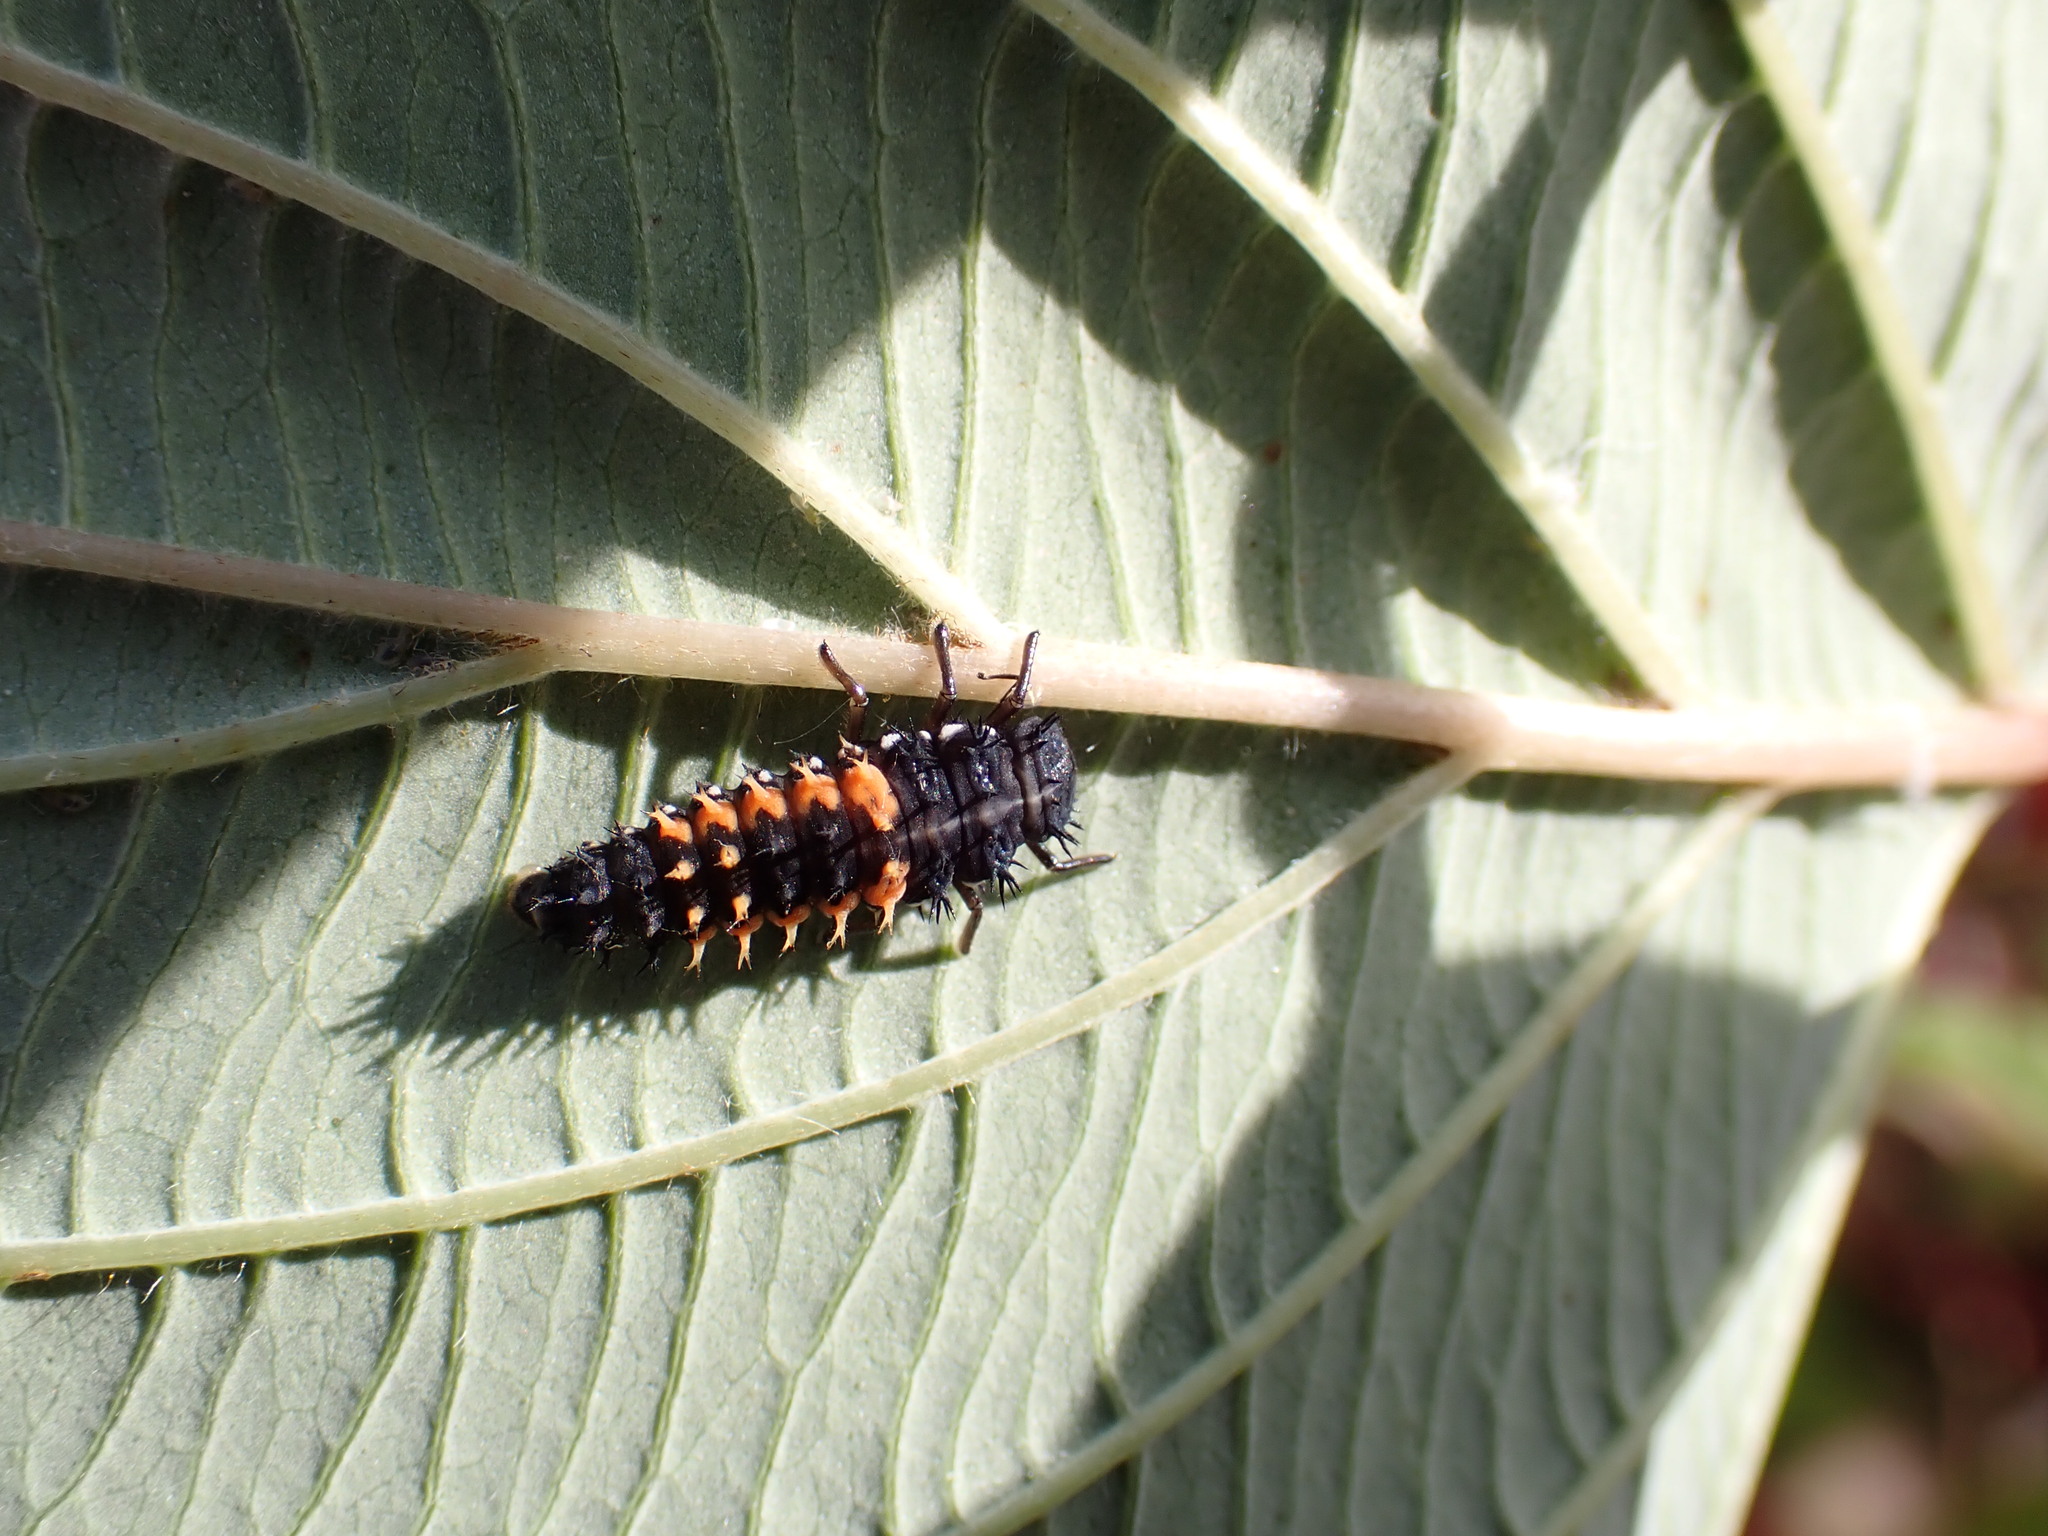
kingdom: Animalia
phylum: Arthropoda
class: Insecta
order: Coleoptera
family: Coccinellidae
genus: Harmonia
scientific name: Harmonia axyridis
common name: Harlequin ladybird
